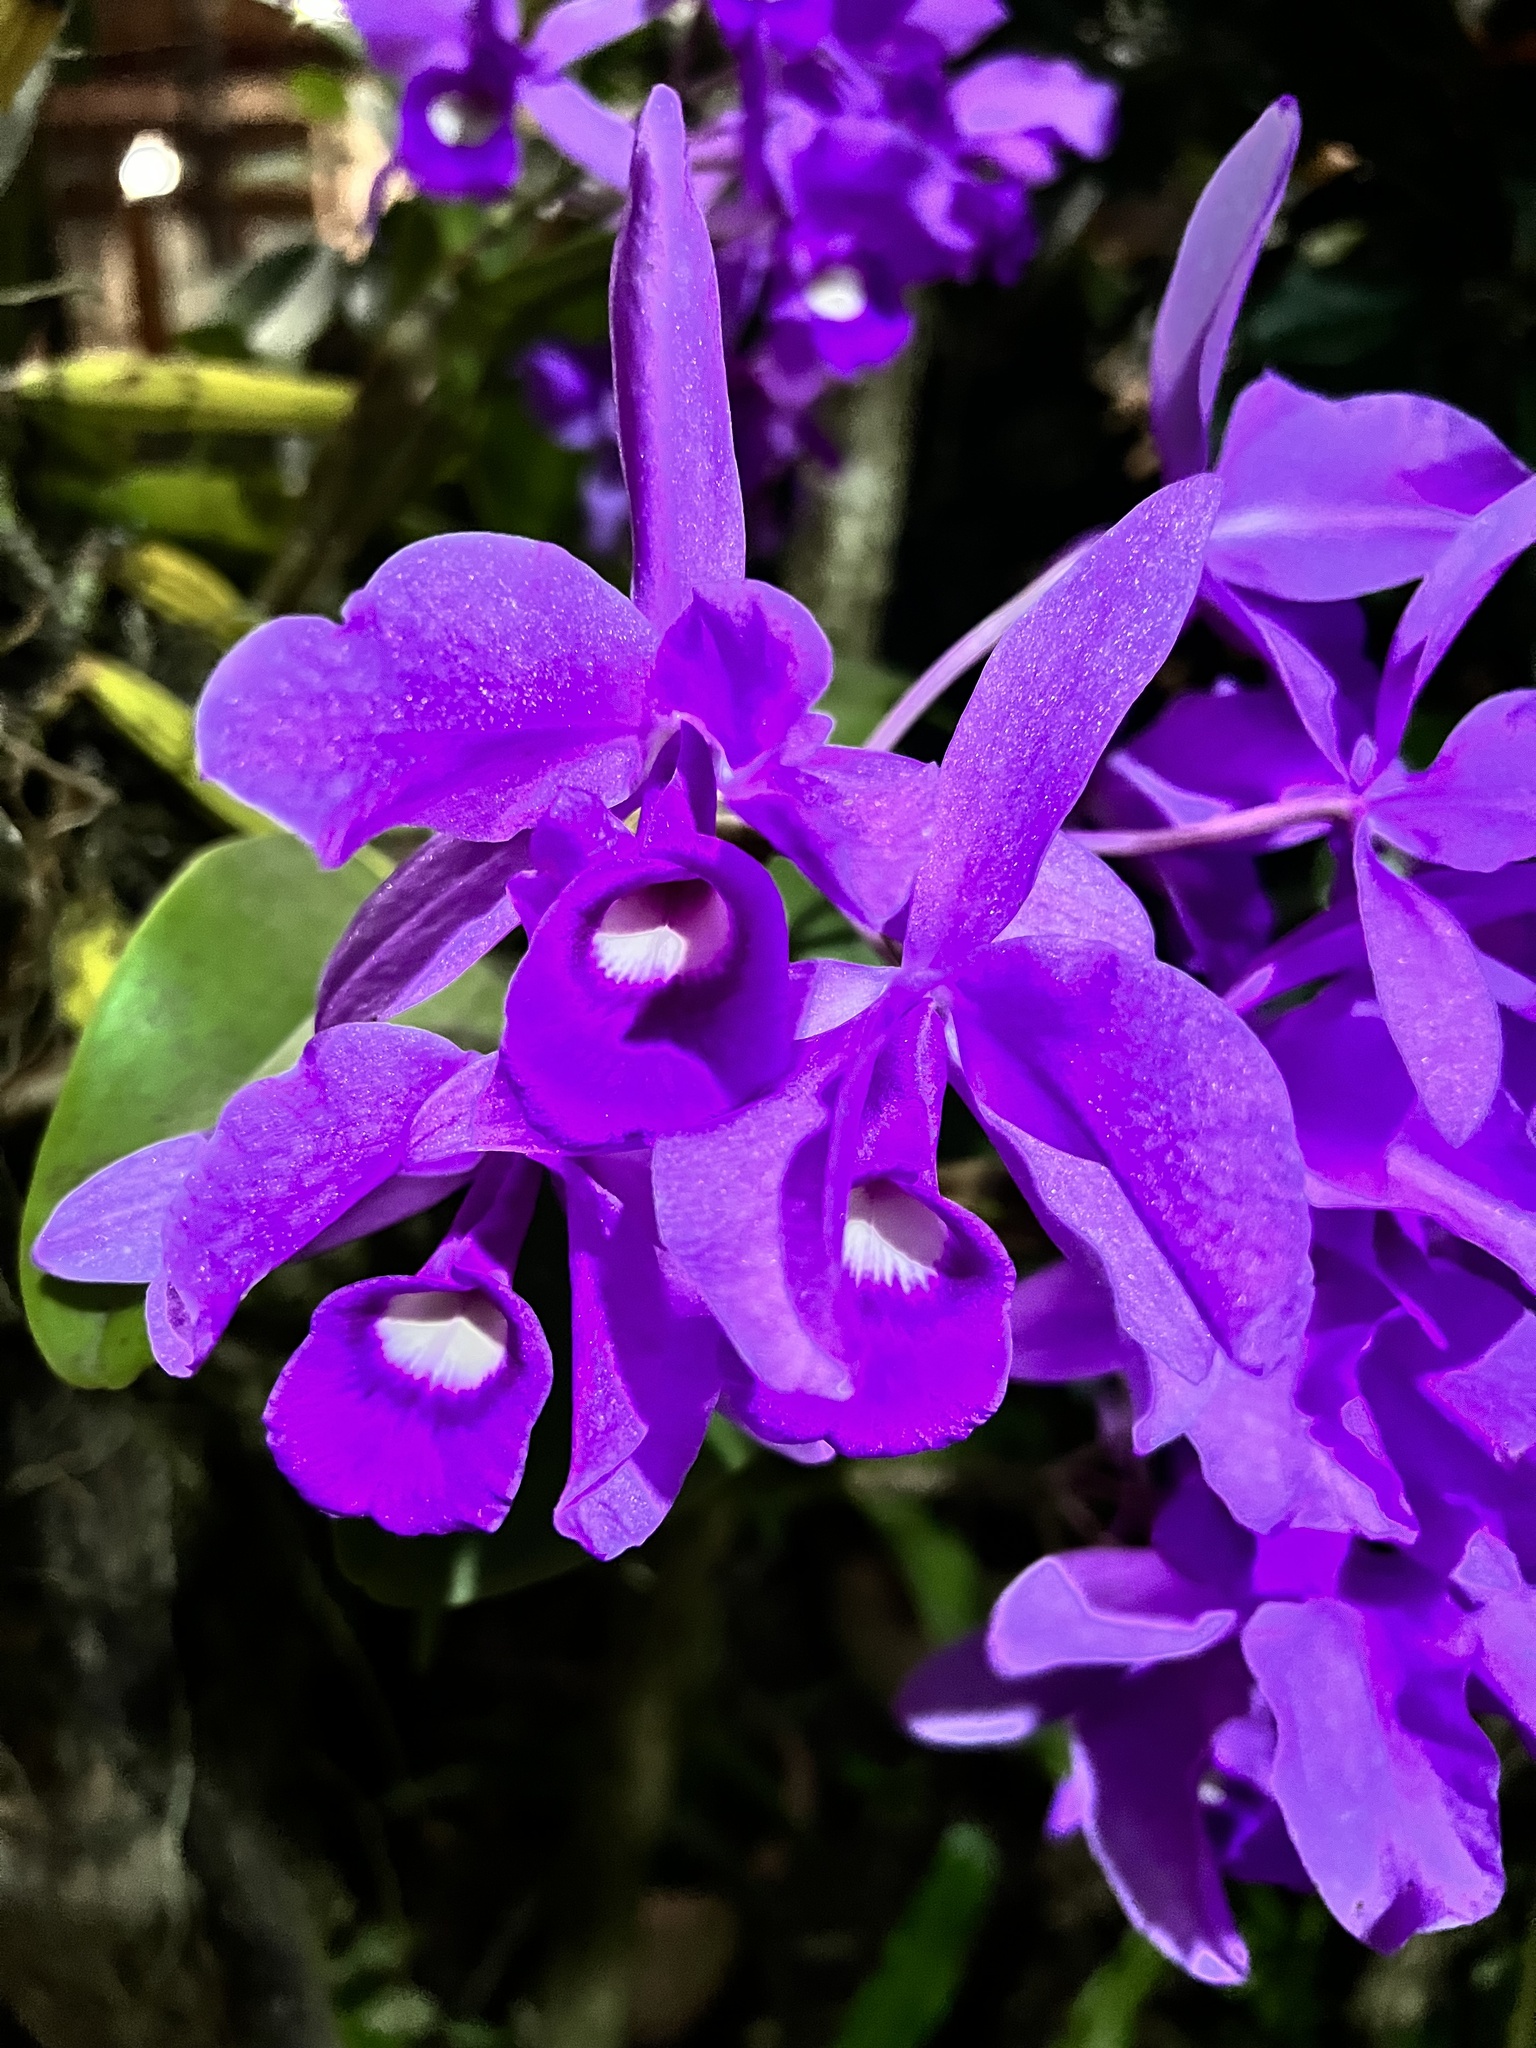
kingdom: Plantae
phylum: Tracheophyta
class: Liliopsida
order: Asparagales
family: Orchidaceae
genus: Guarianthe
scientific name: Guarianthe skinneri
